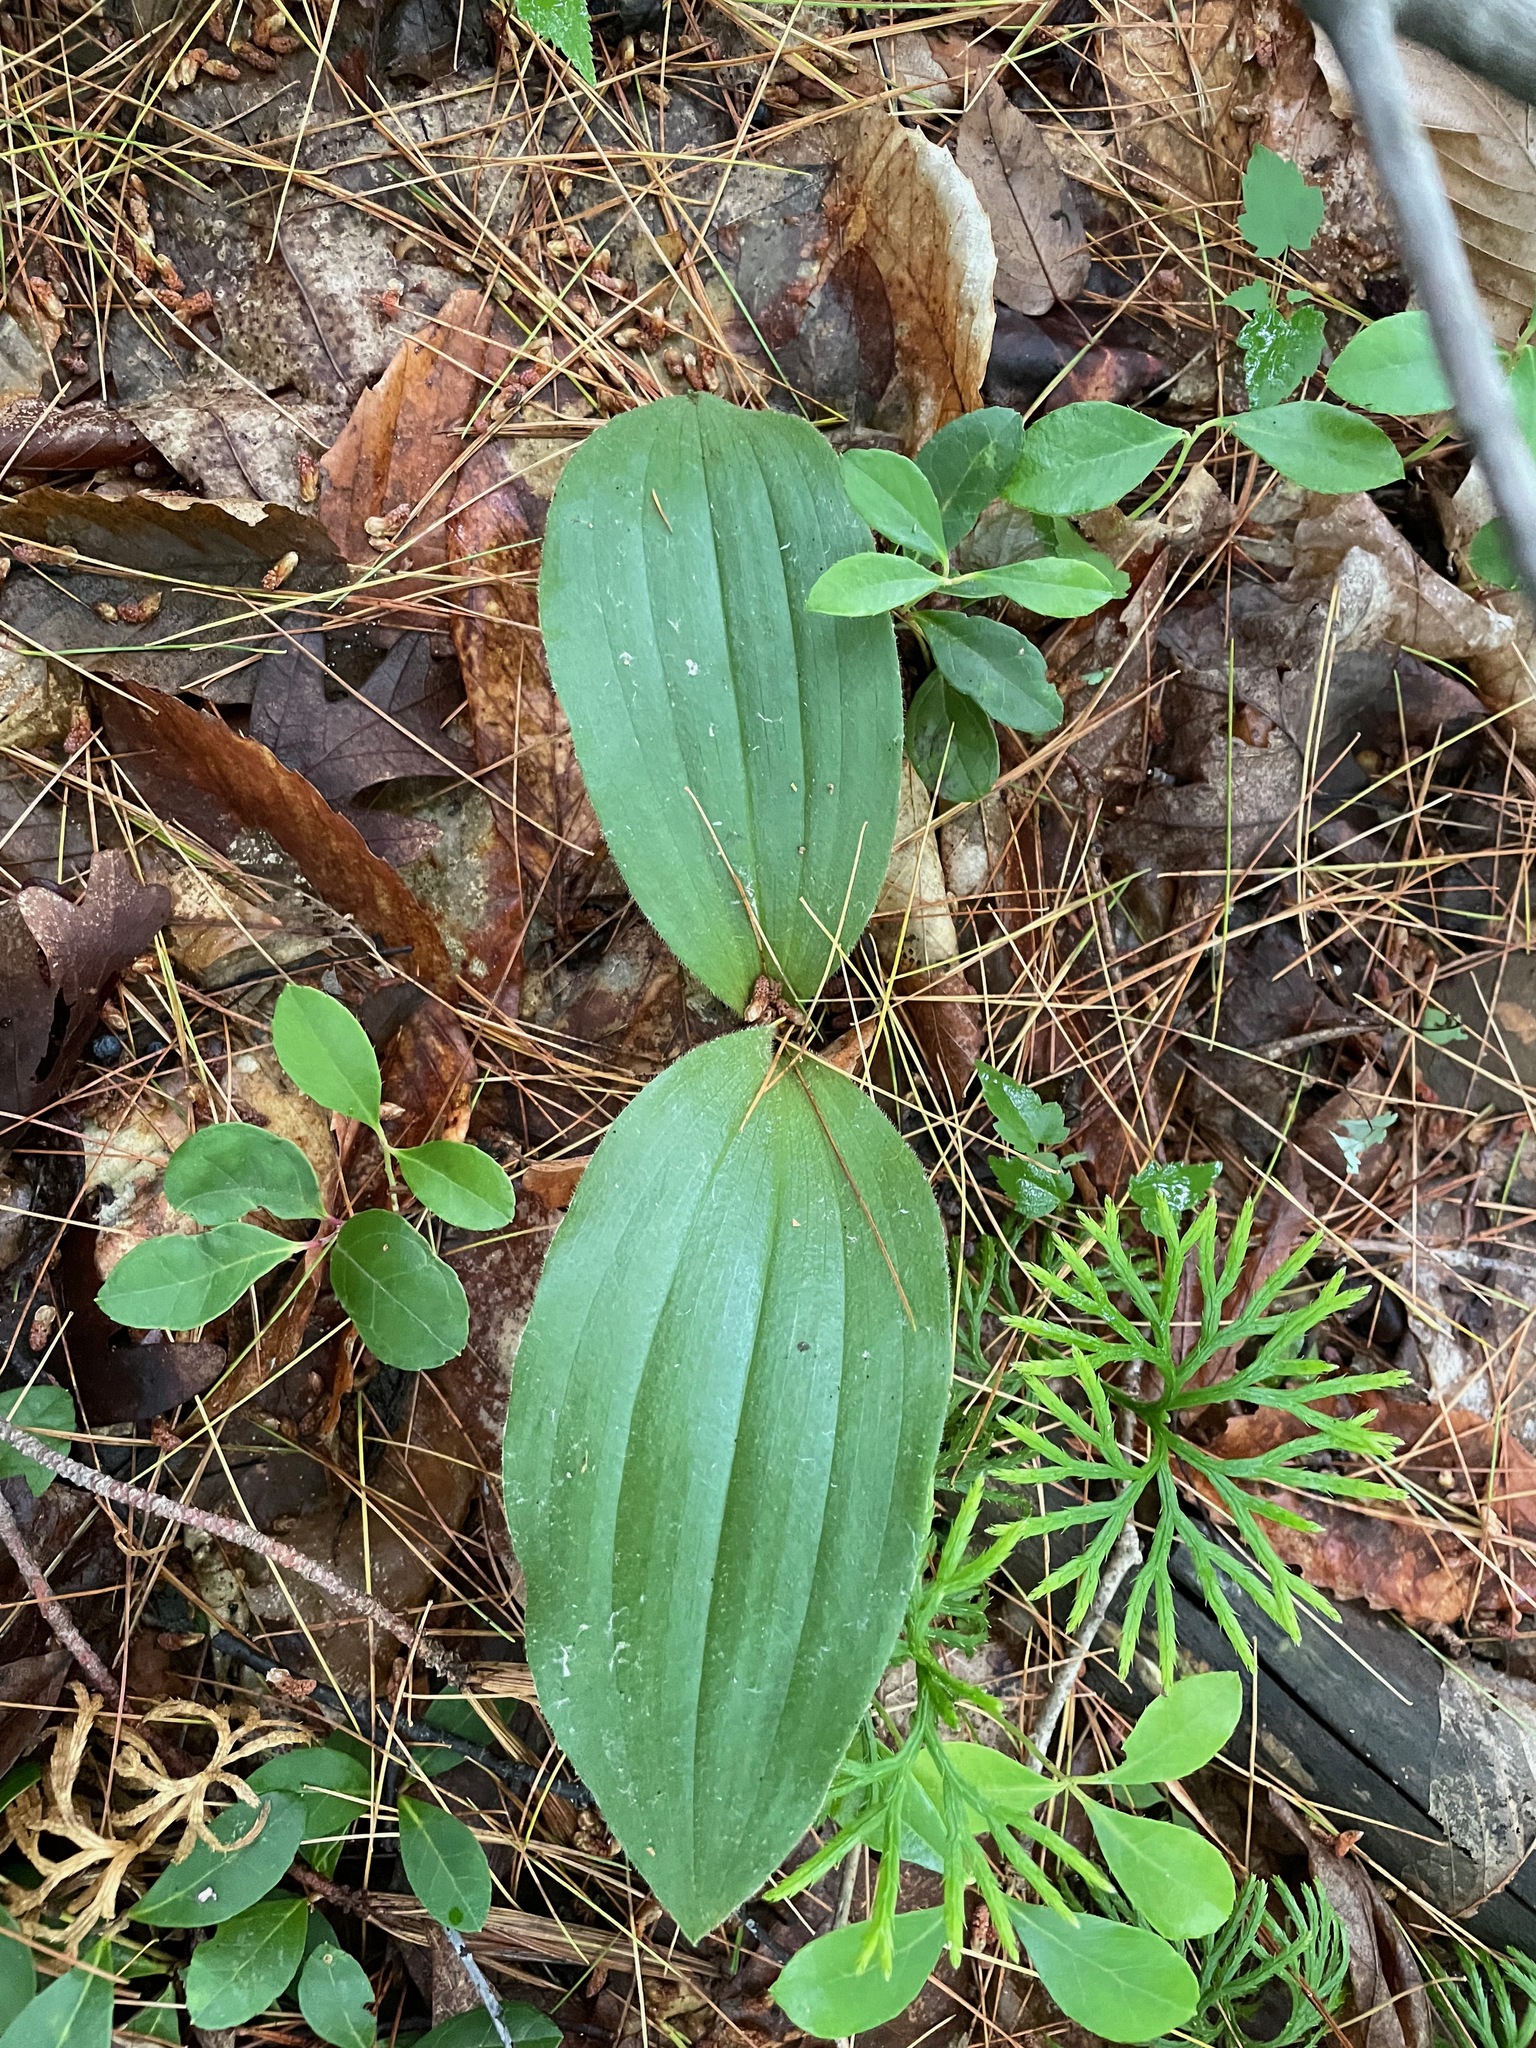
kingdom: Plantae
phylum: Tracheophyta
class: Liliopsida
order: Asparagales
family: Orchidaceae
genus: Cypripedium
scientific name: Cypripedium acaule
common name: Pink lady's-slipper
